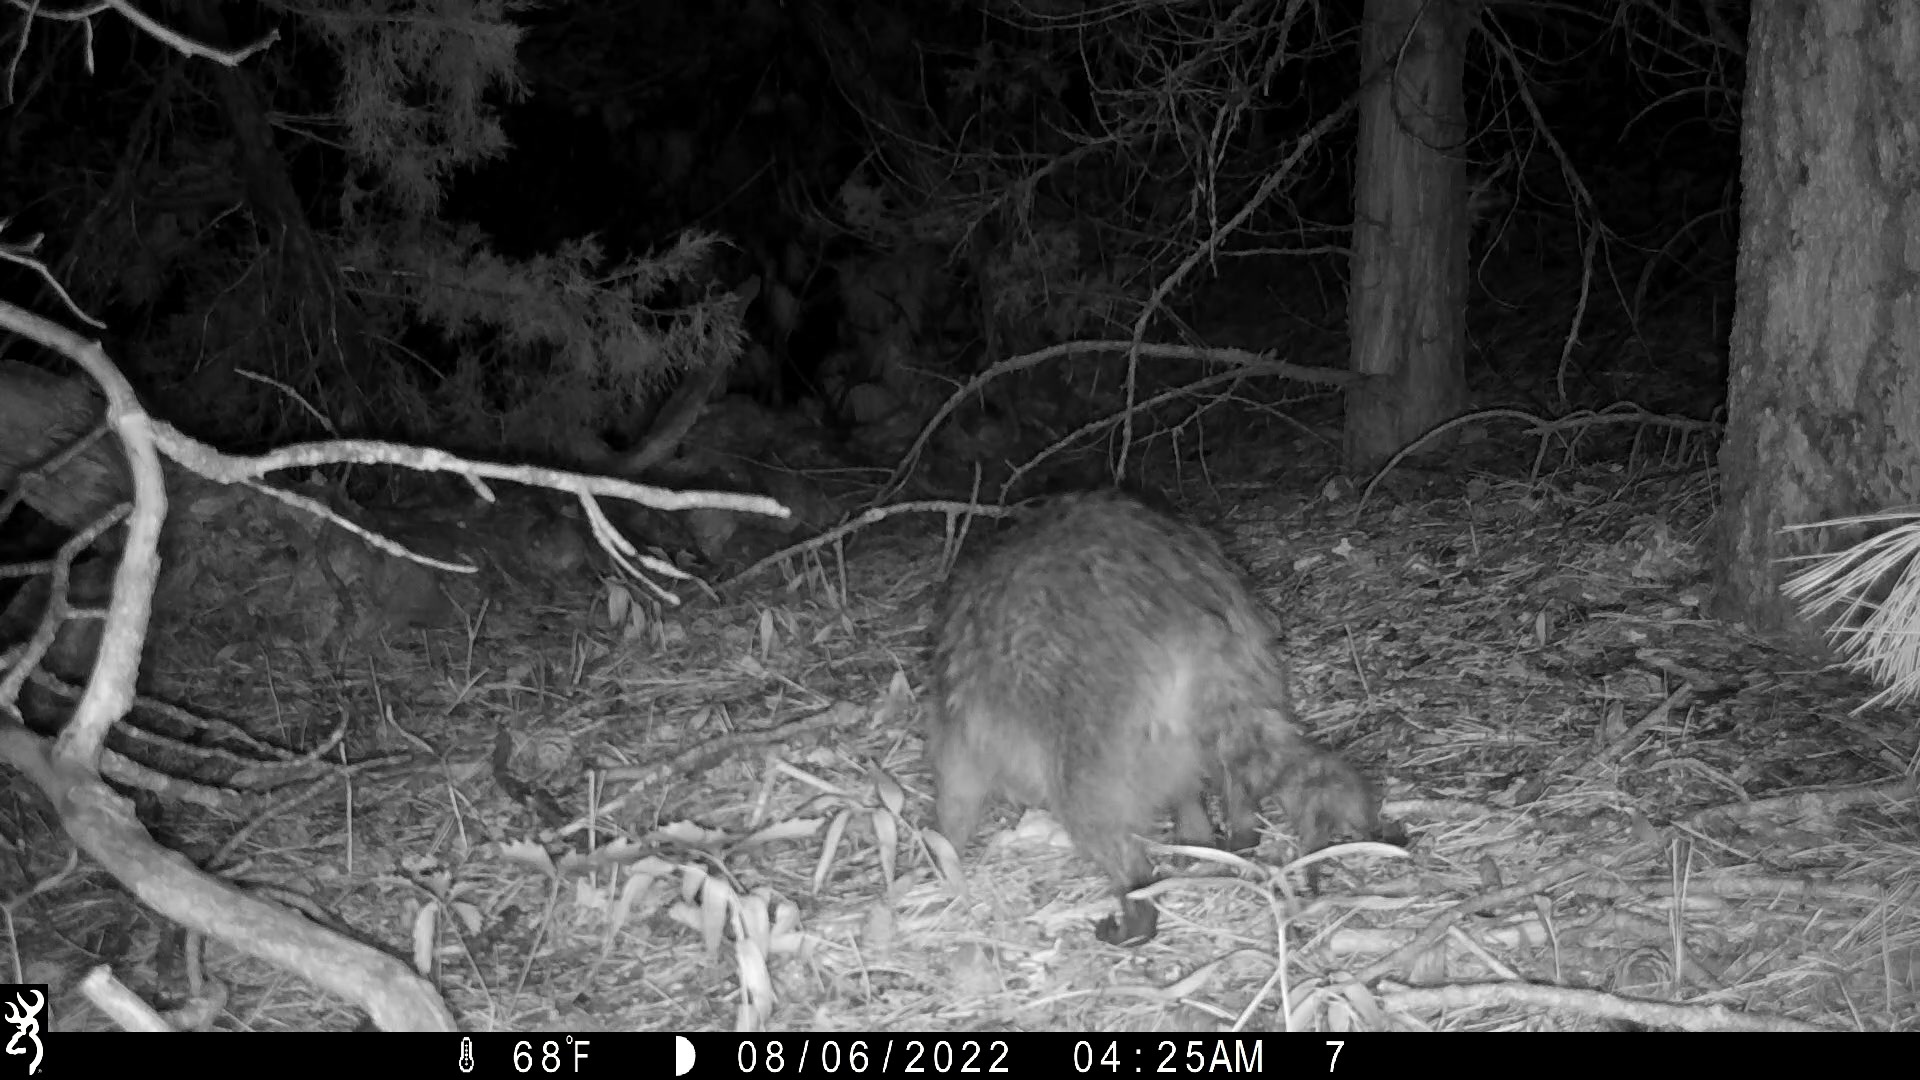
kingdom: Animalia
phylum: Chordata
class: Mammalia
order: Carnivora
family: Procyonidae
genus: Procyon
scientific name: Procyon lotor
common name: Raccoon
